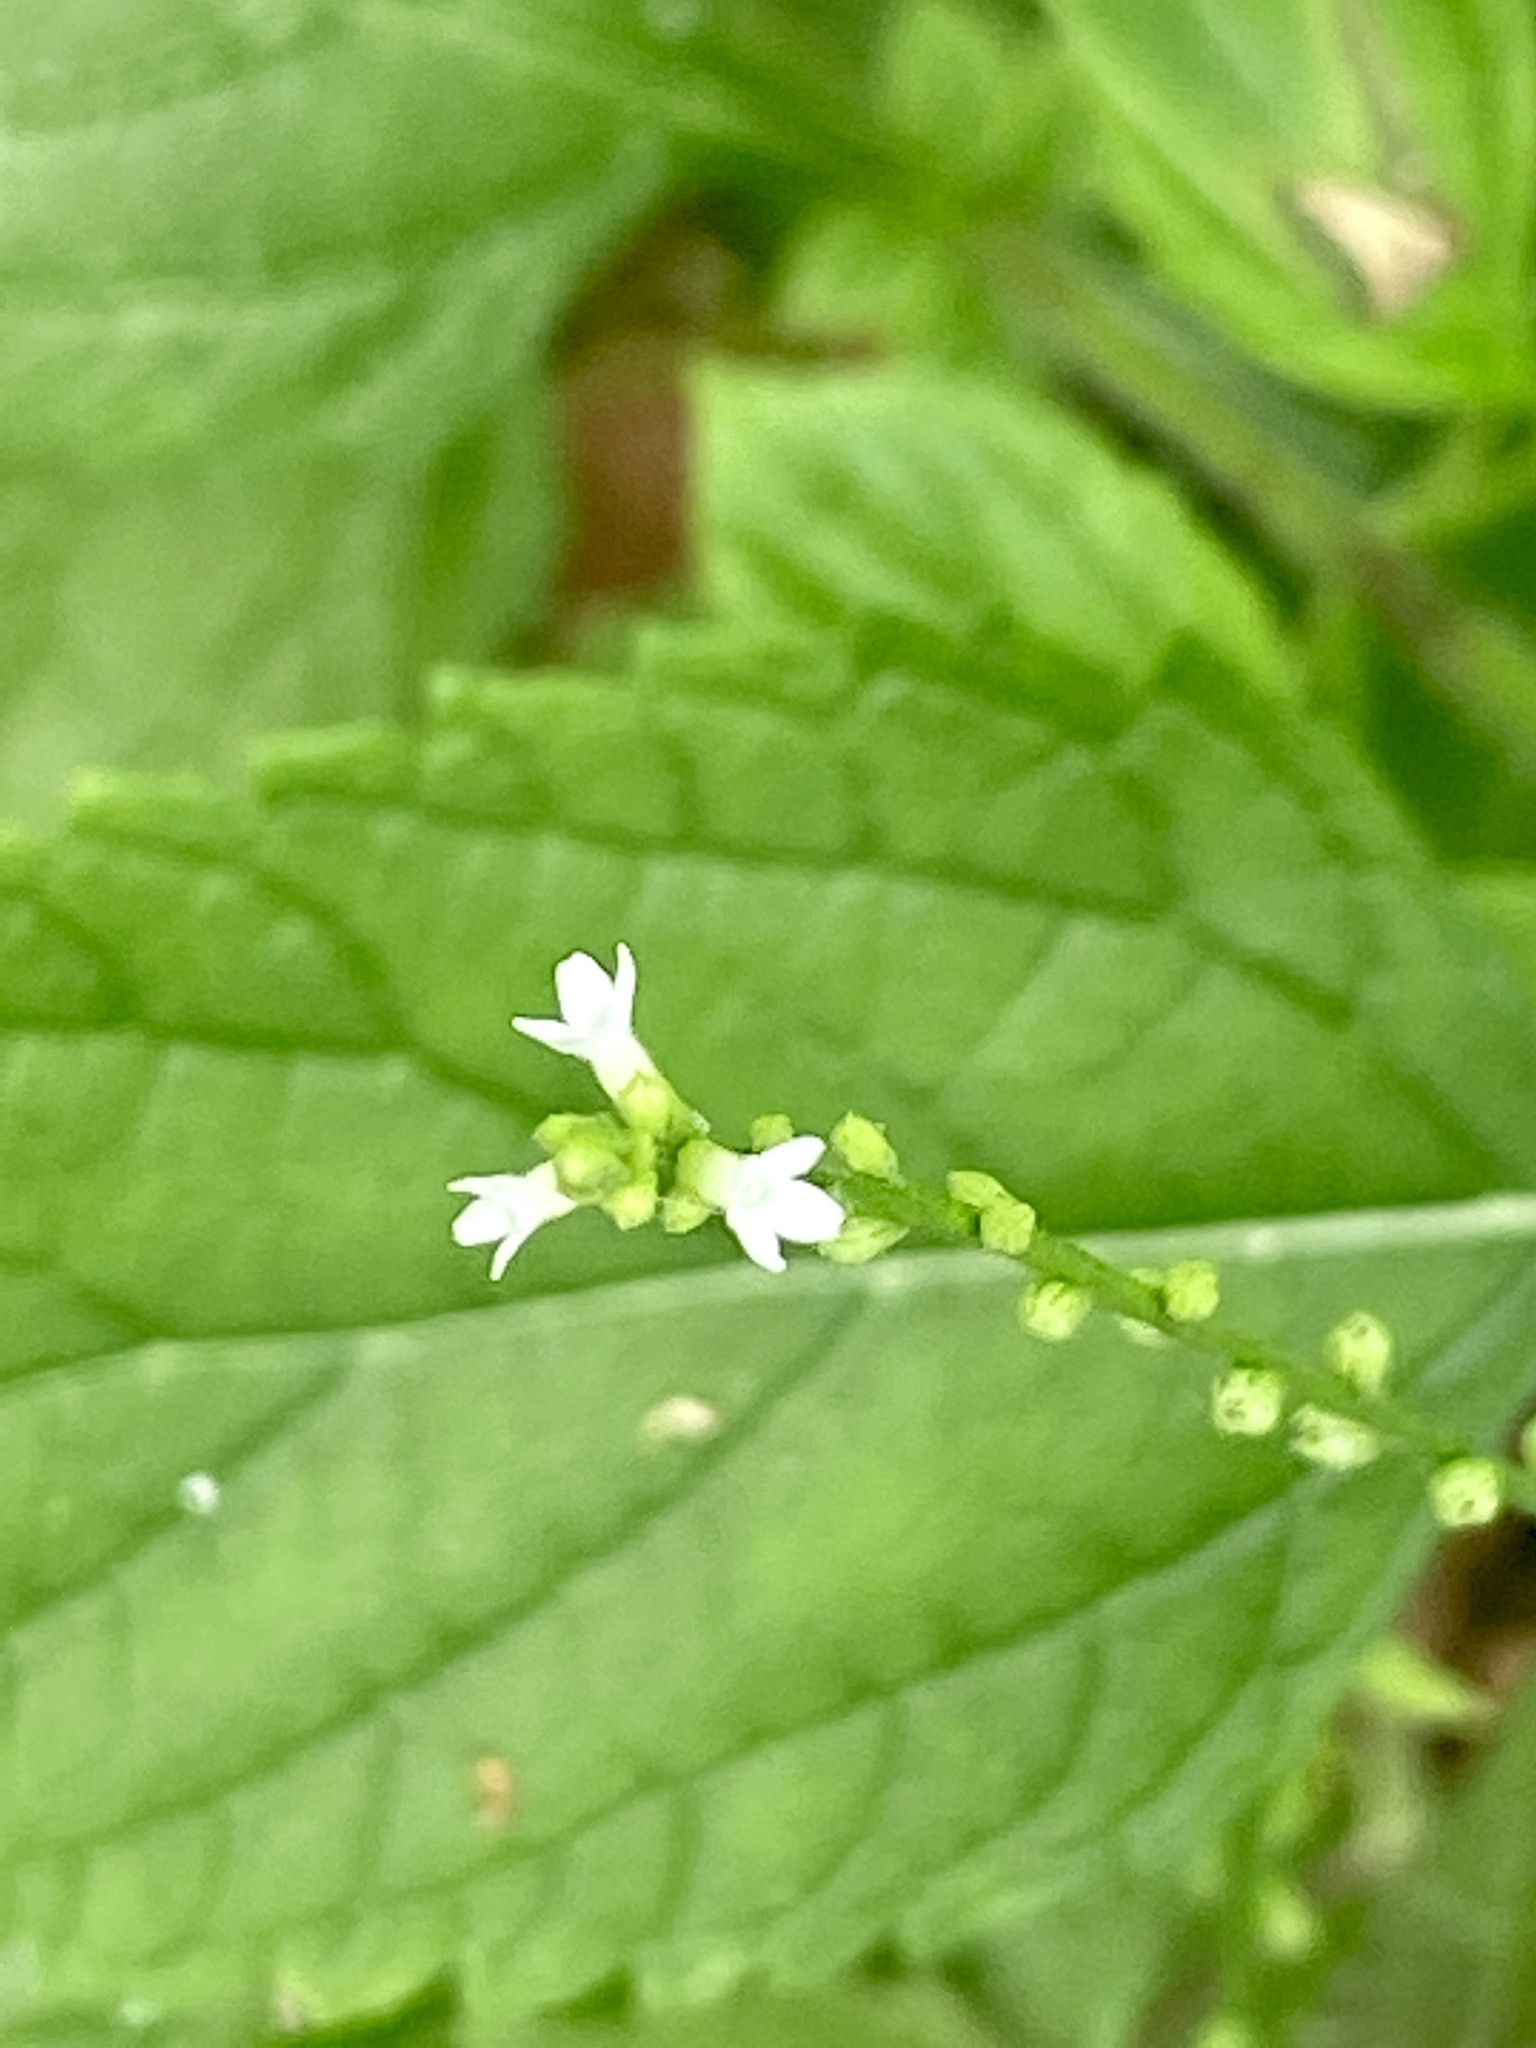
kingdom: Plantae
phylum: Tracheophyta
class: Magnoliopsida
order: Lamiales
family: Verbenaceae
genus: Verbena
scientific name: Verbena urticifolia
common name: Nettle-leaved vervain
